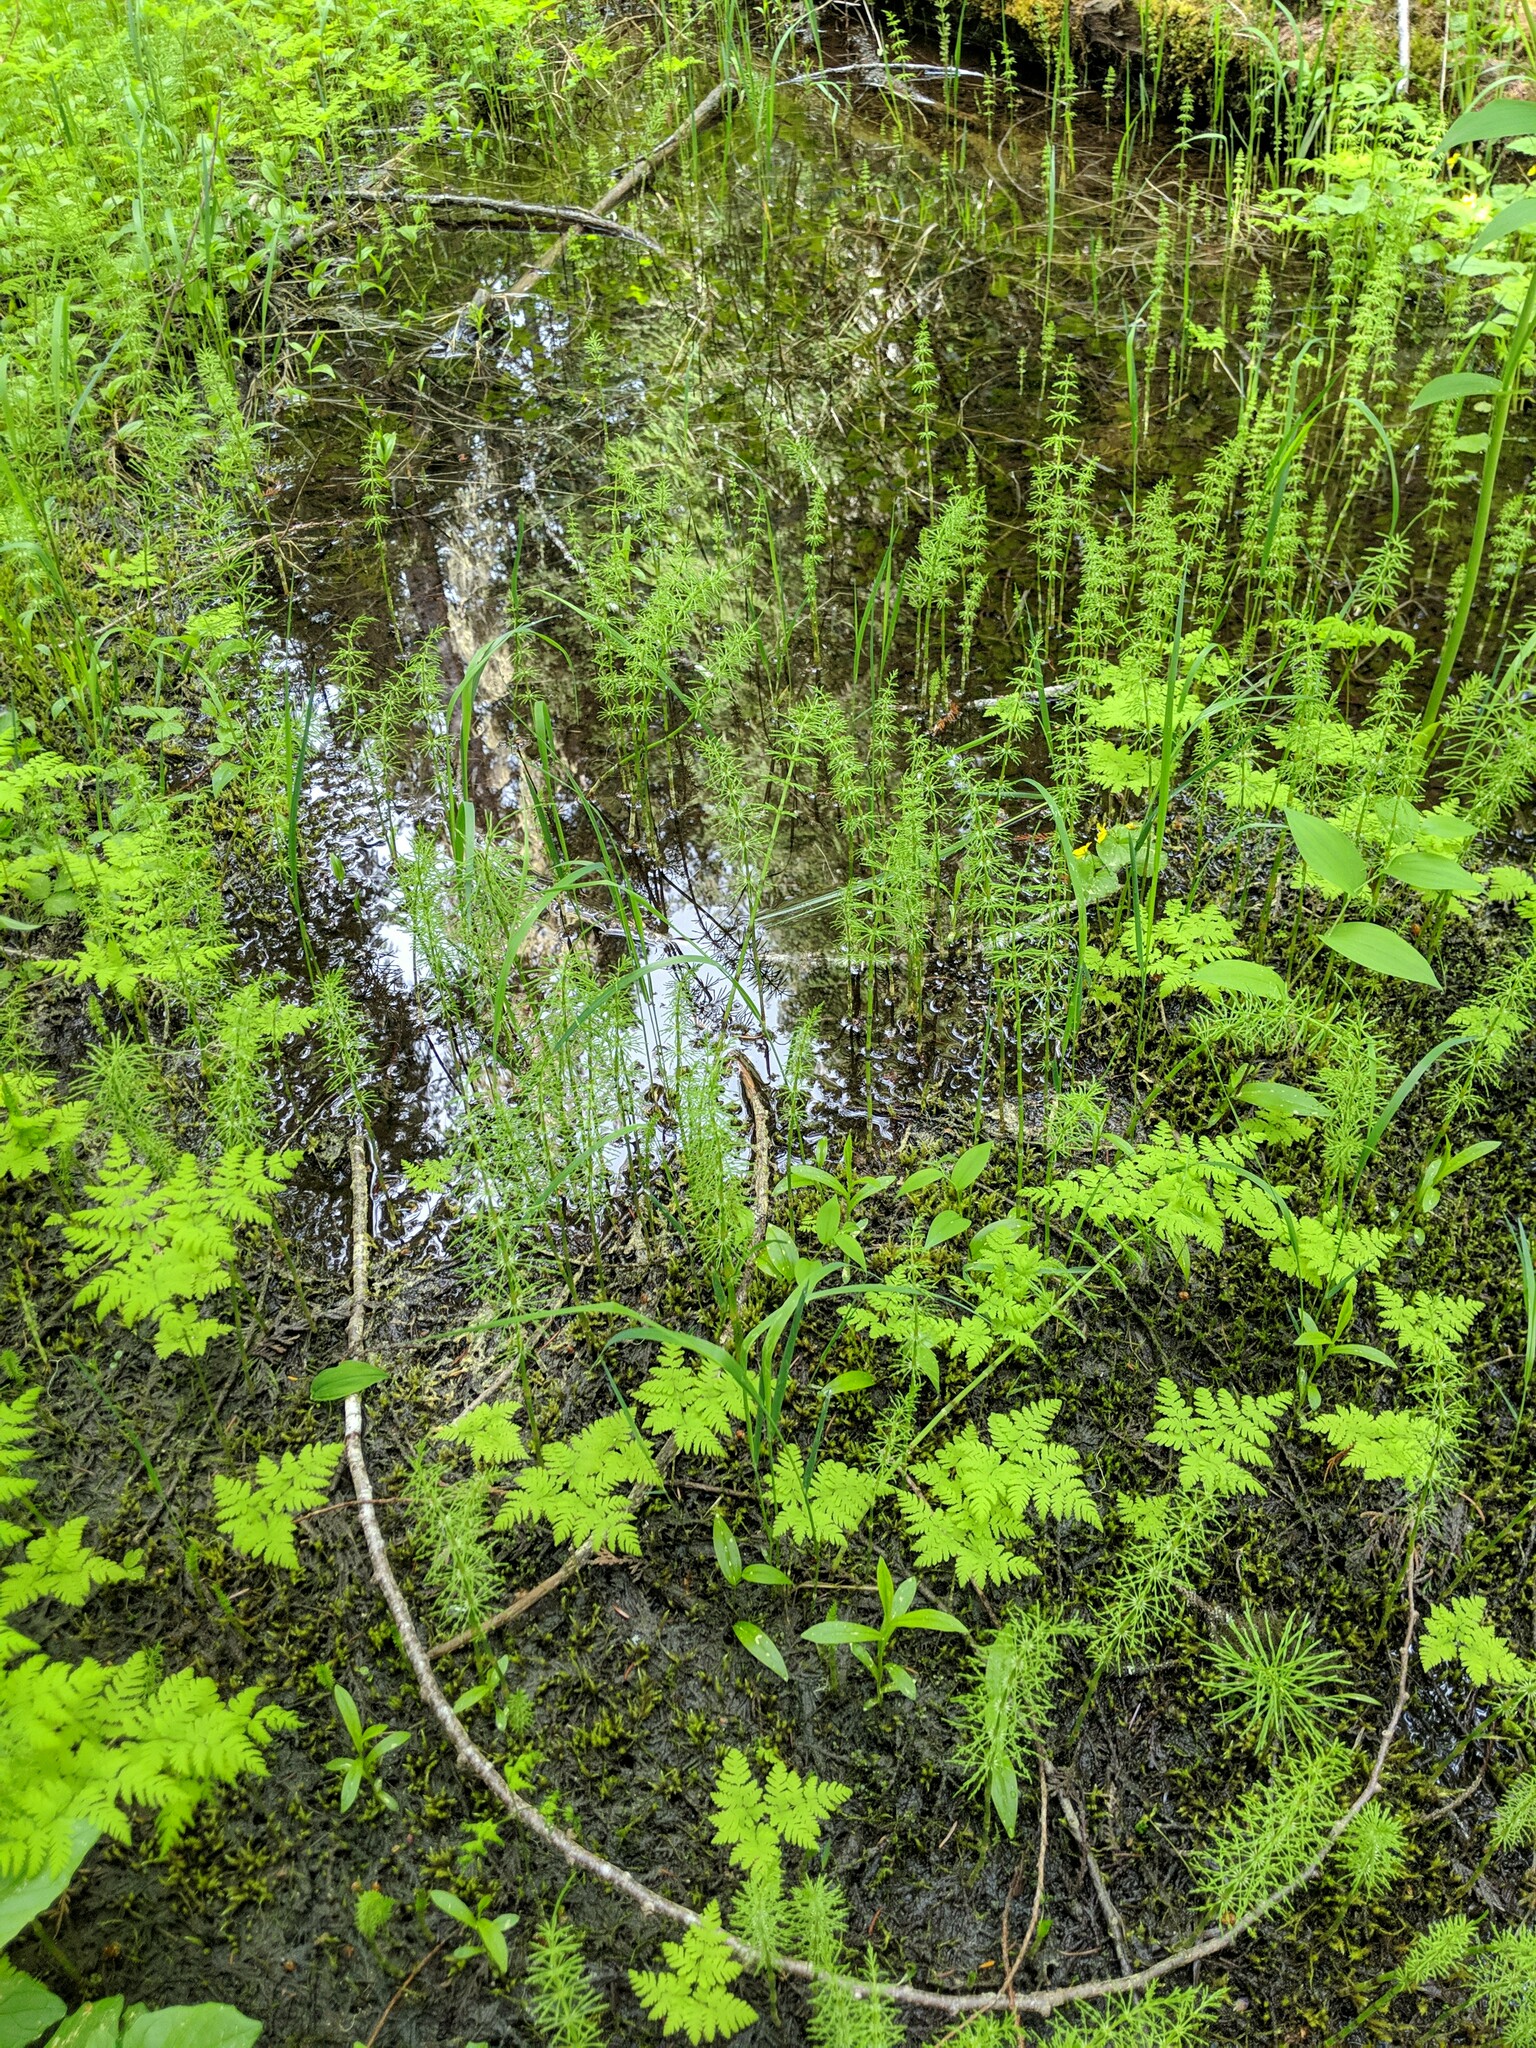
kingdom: Plantae
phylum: Tracheophyta
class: Polypodiopsida
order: Equisetales
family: Equisetaceae
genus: Equisetum
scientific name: Equisetum sylvaticum
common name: Wood horsetail
